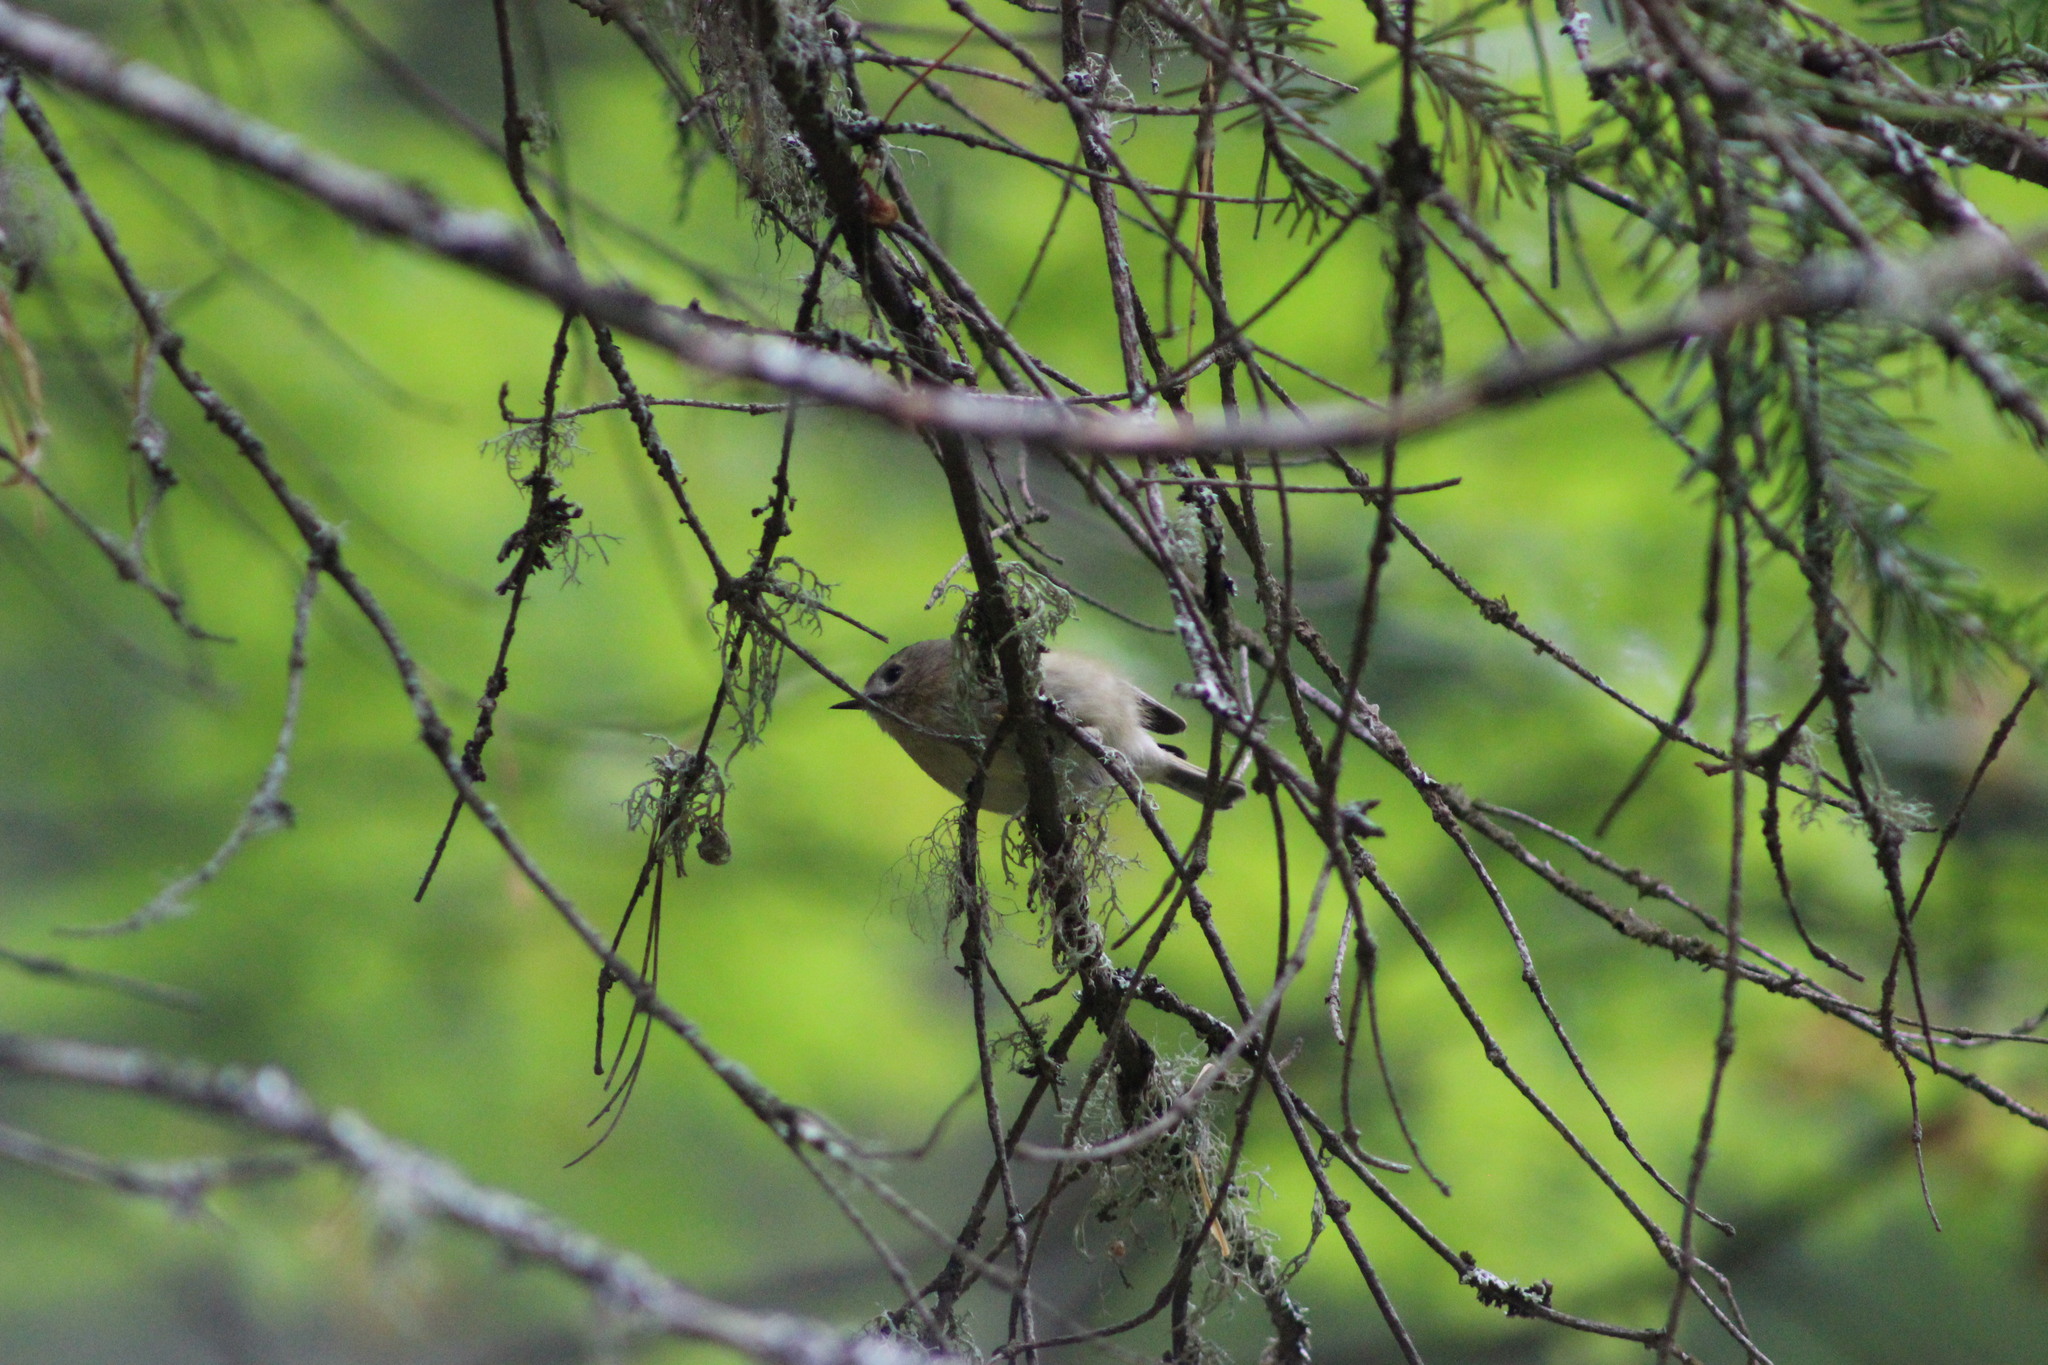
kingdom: Animalia
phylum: Chordata
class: Aves
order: Passeriformes
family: Regulidae
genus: Regulus
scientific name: Regulus regulus
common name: Goldcrest
